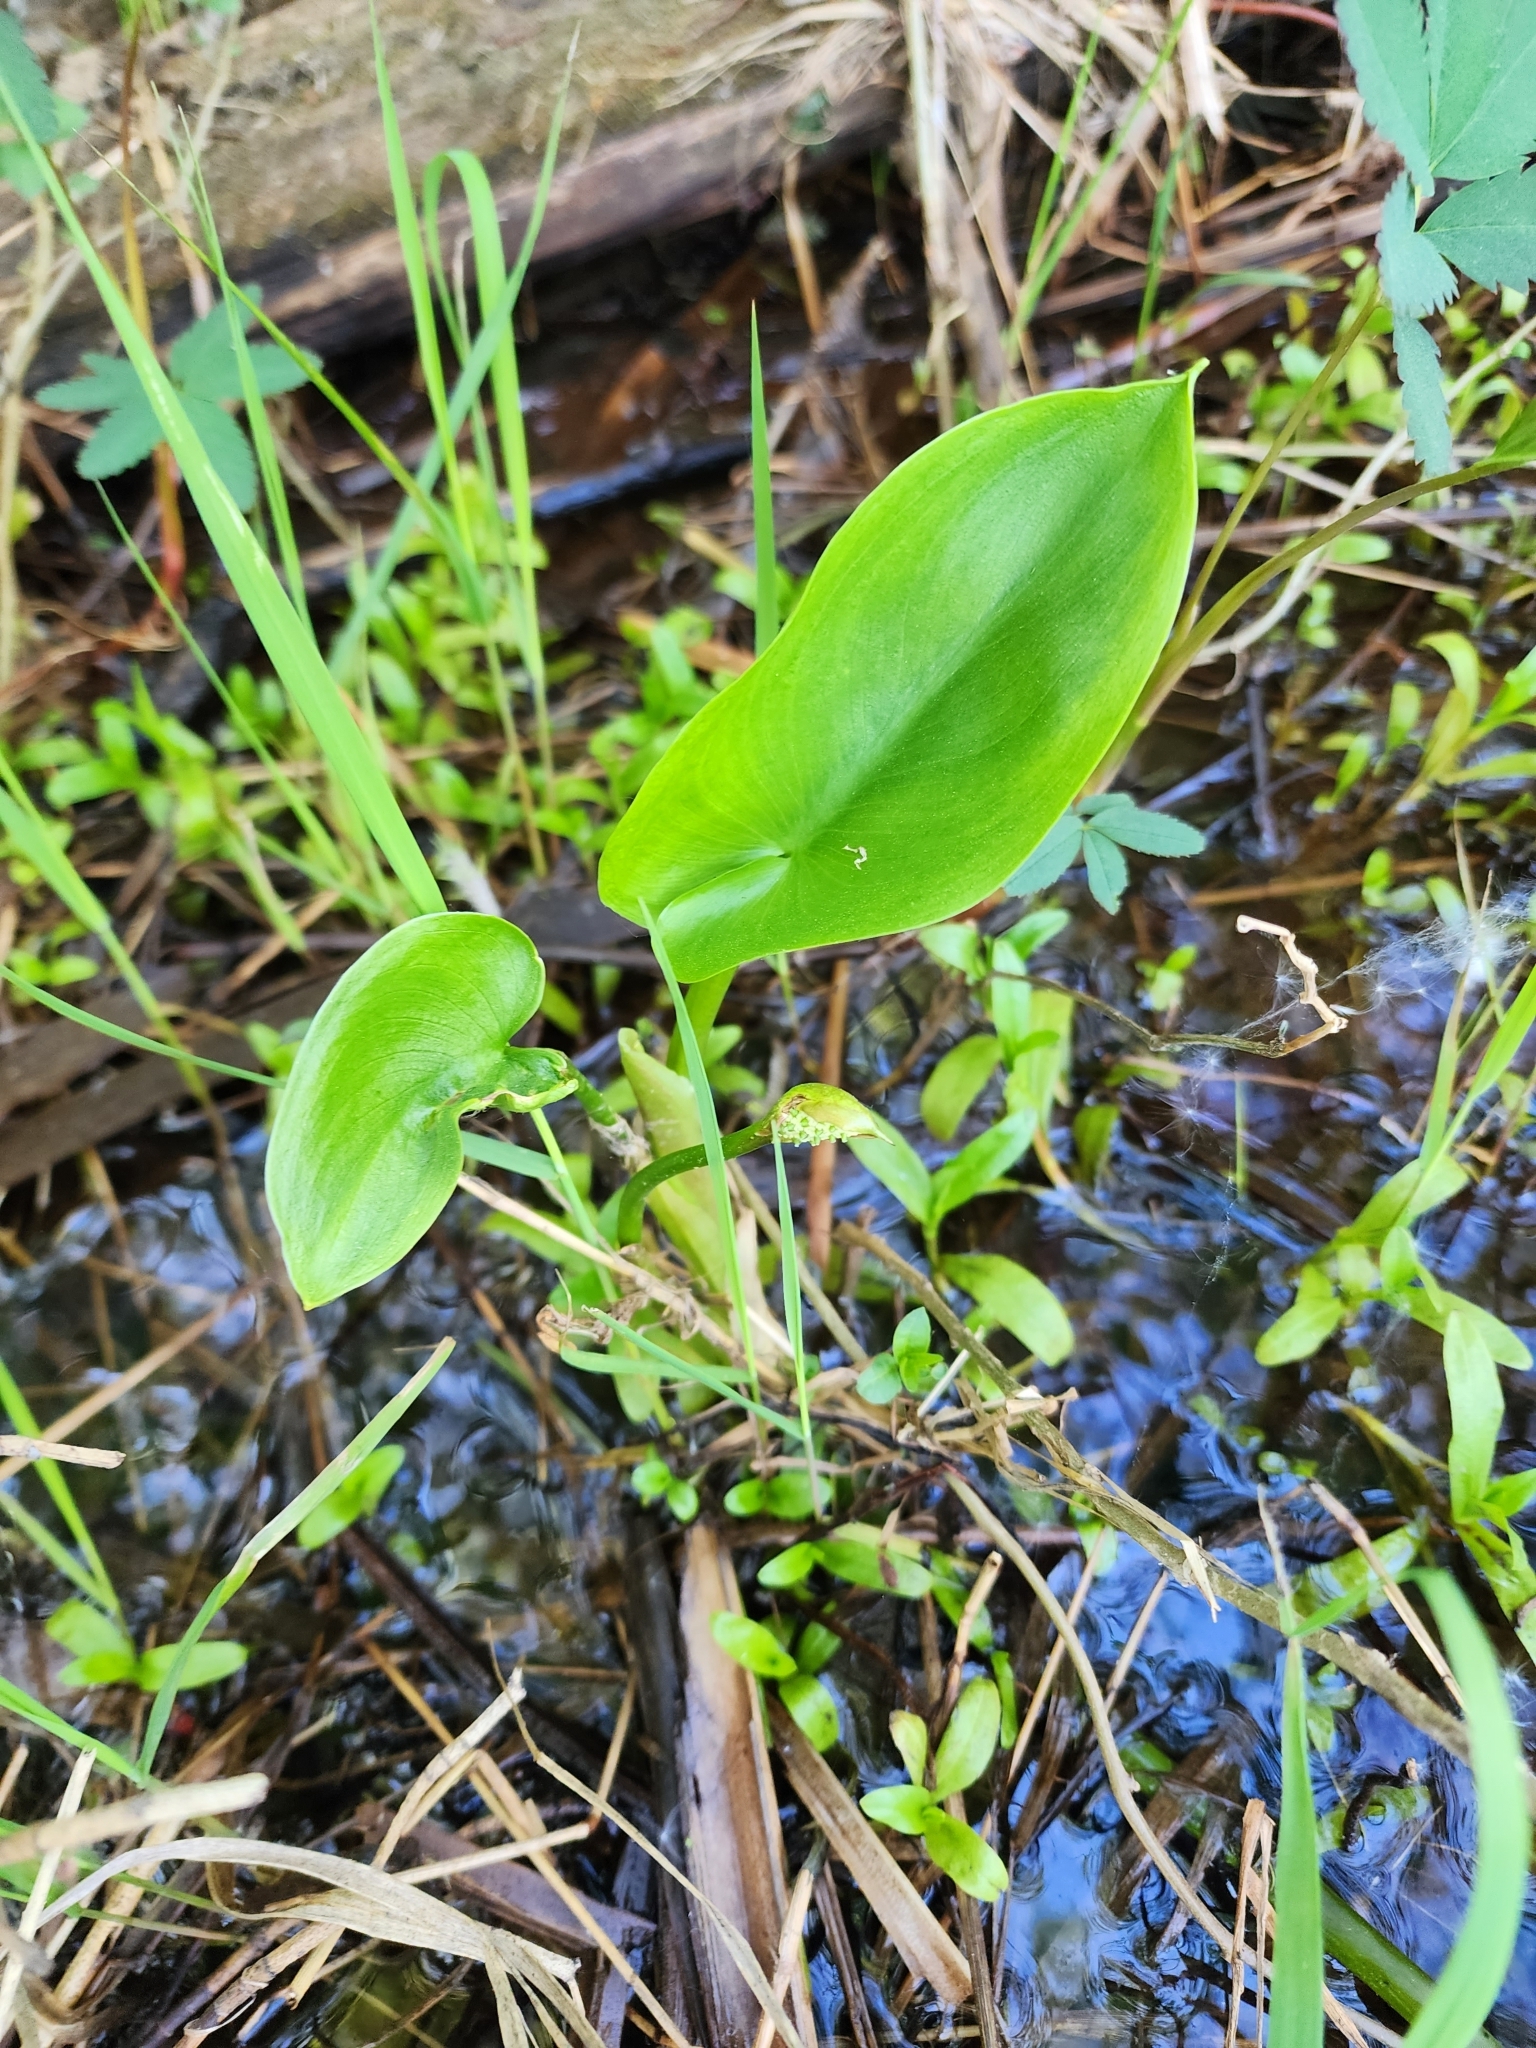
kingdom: Plantae
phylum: Tracheophyta
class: Liliopsida
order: Alismatales
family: Araceae
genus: Calla
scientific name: Calla palustris
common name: Bog arum
